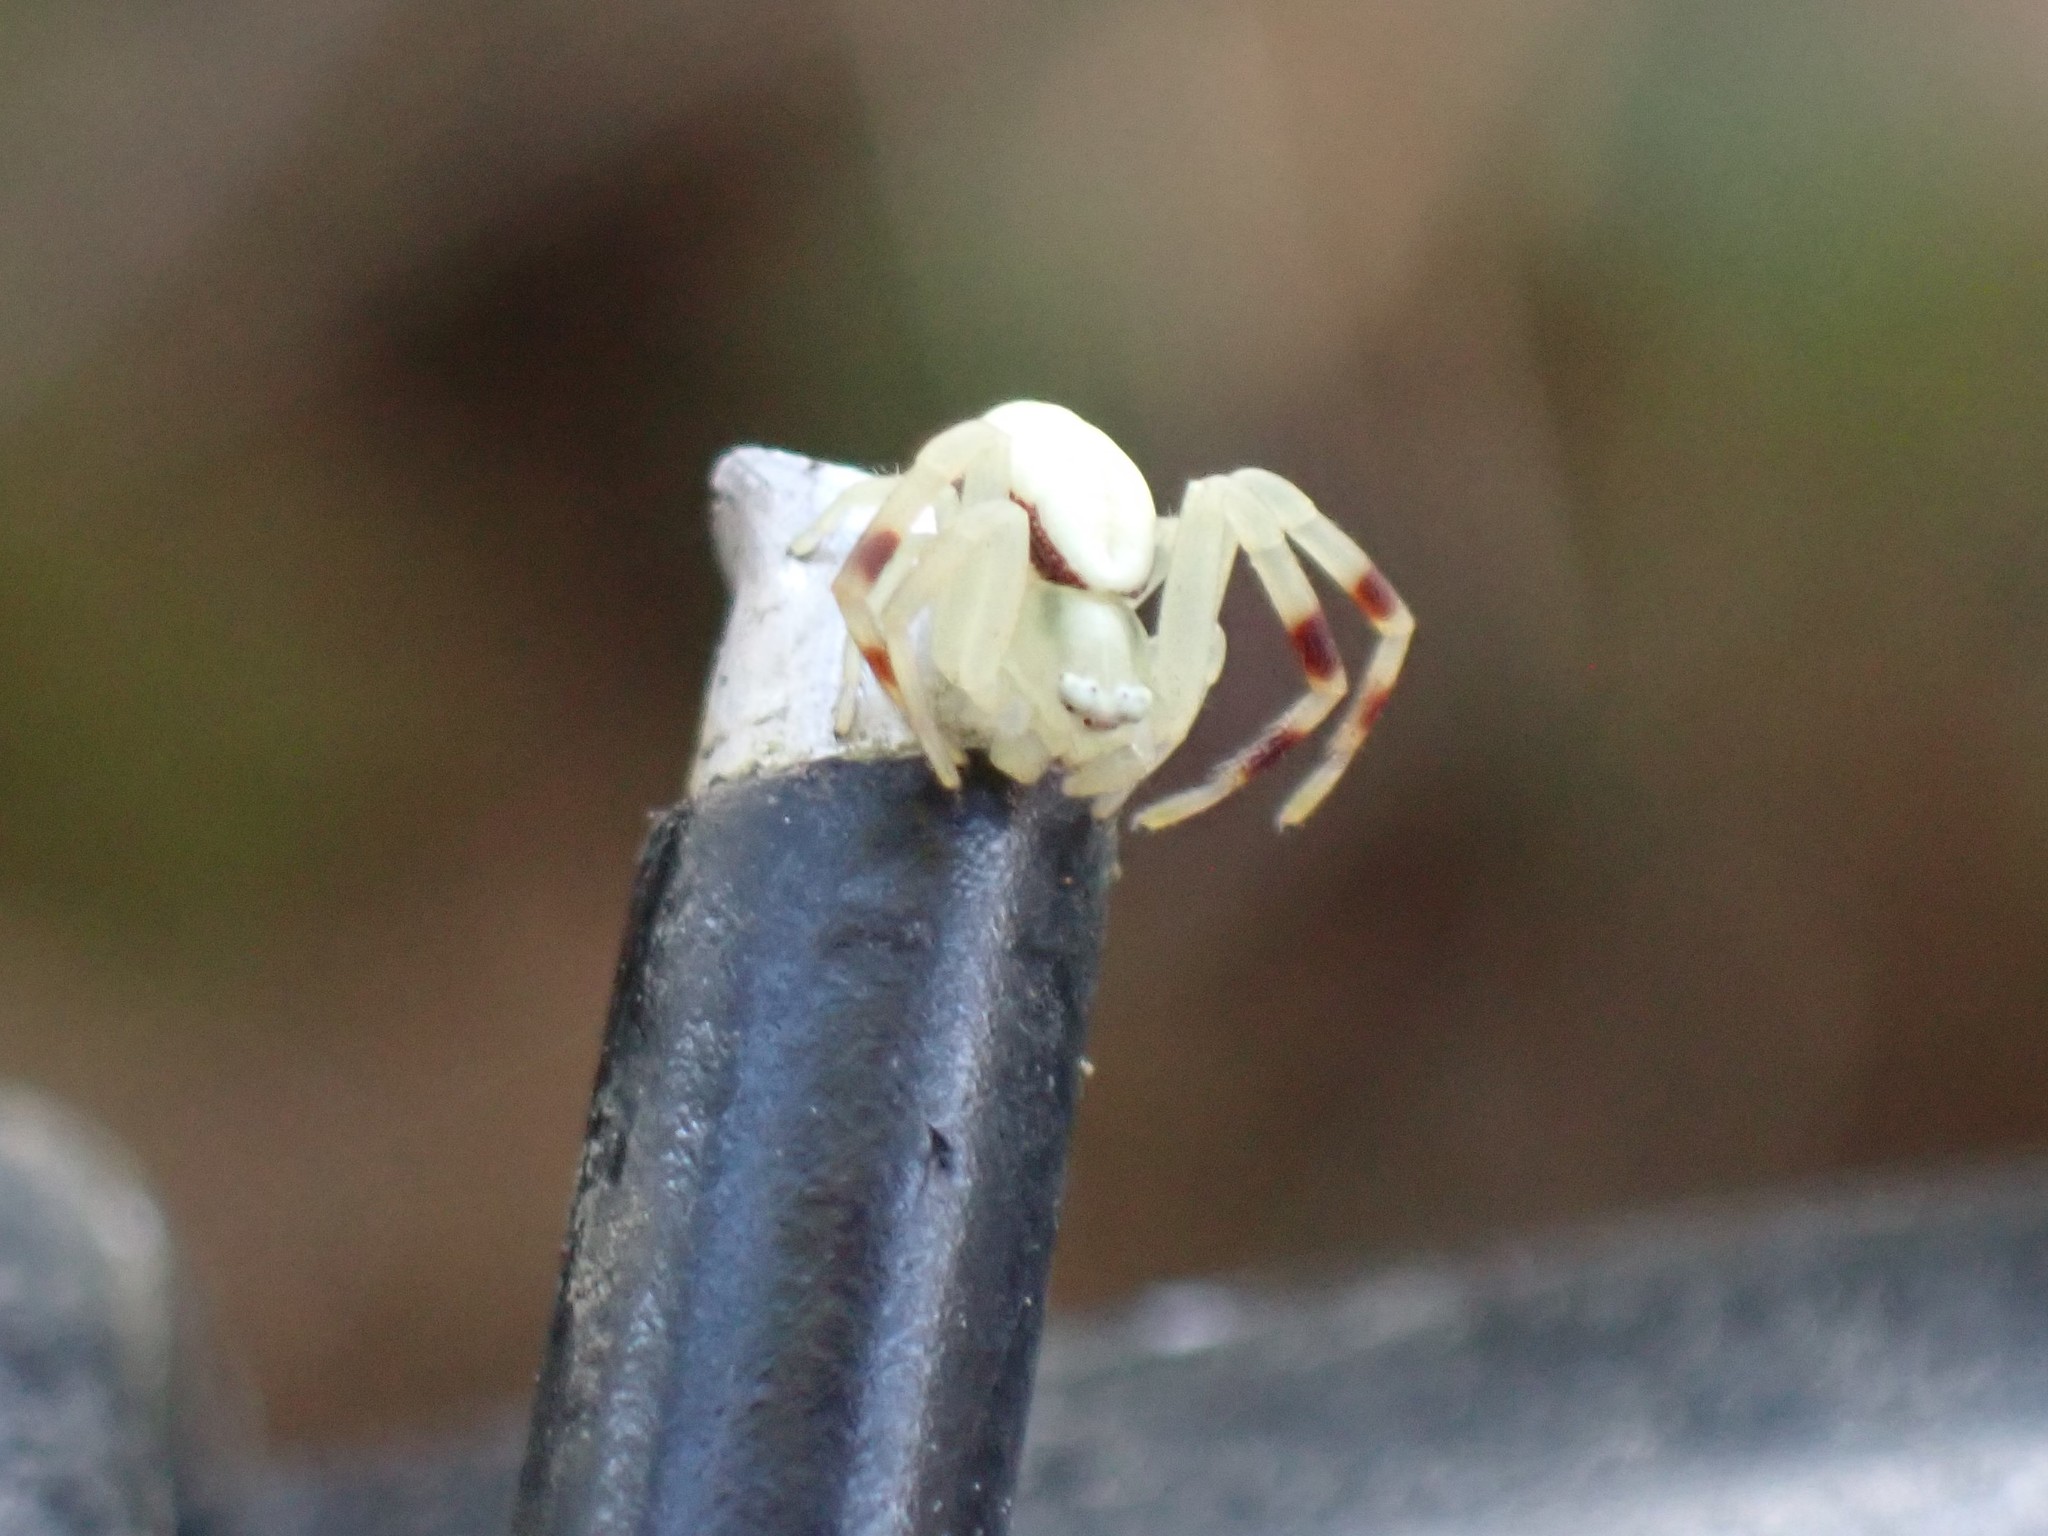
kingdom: Animalia
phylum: Arthropoda
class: Arachnida
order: Araneae
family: Thomisidae
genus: Misumena
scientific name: Misumena vatia
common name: Goldenrod crab spider
